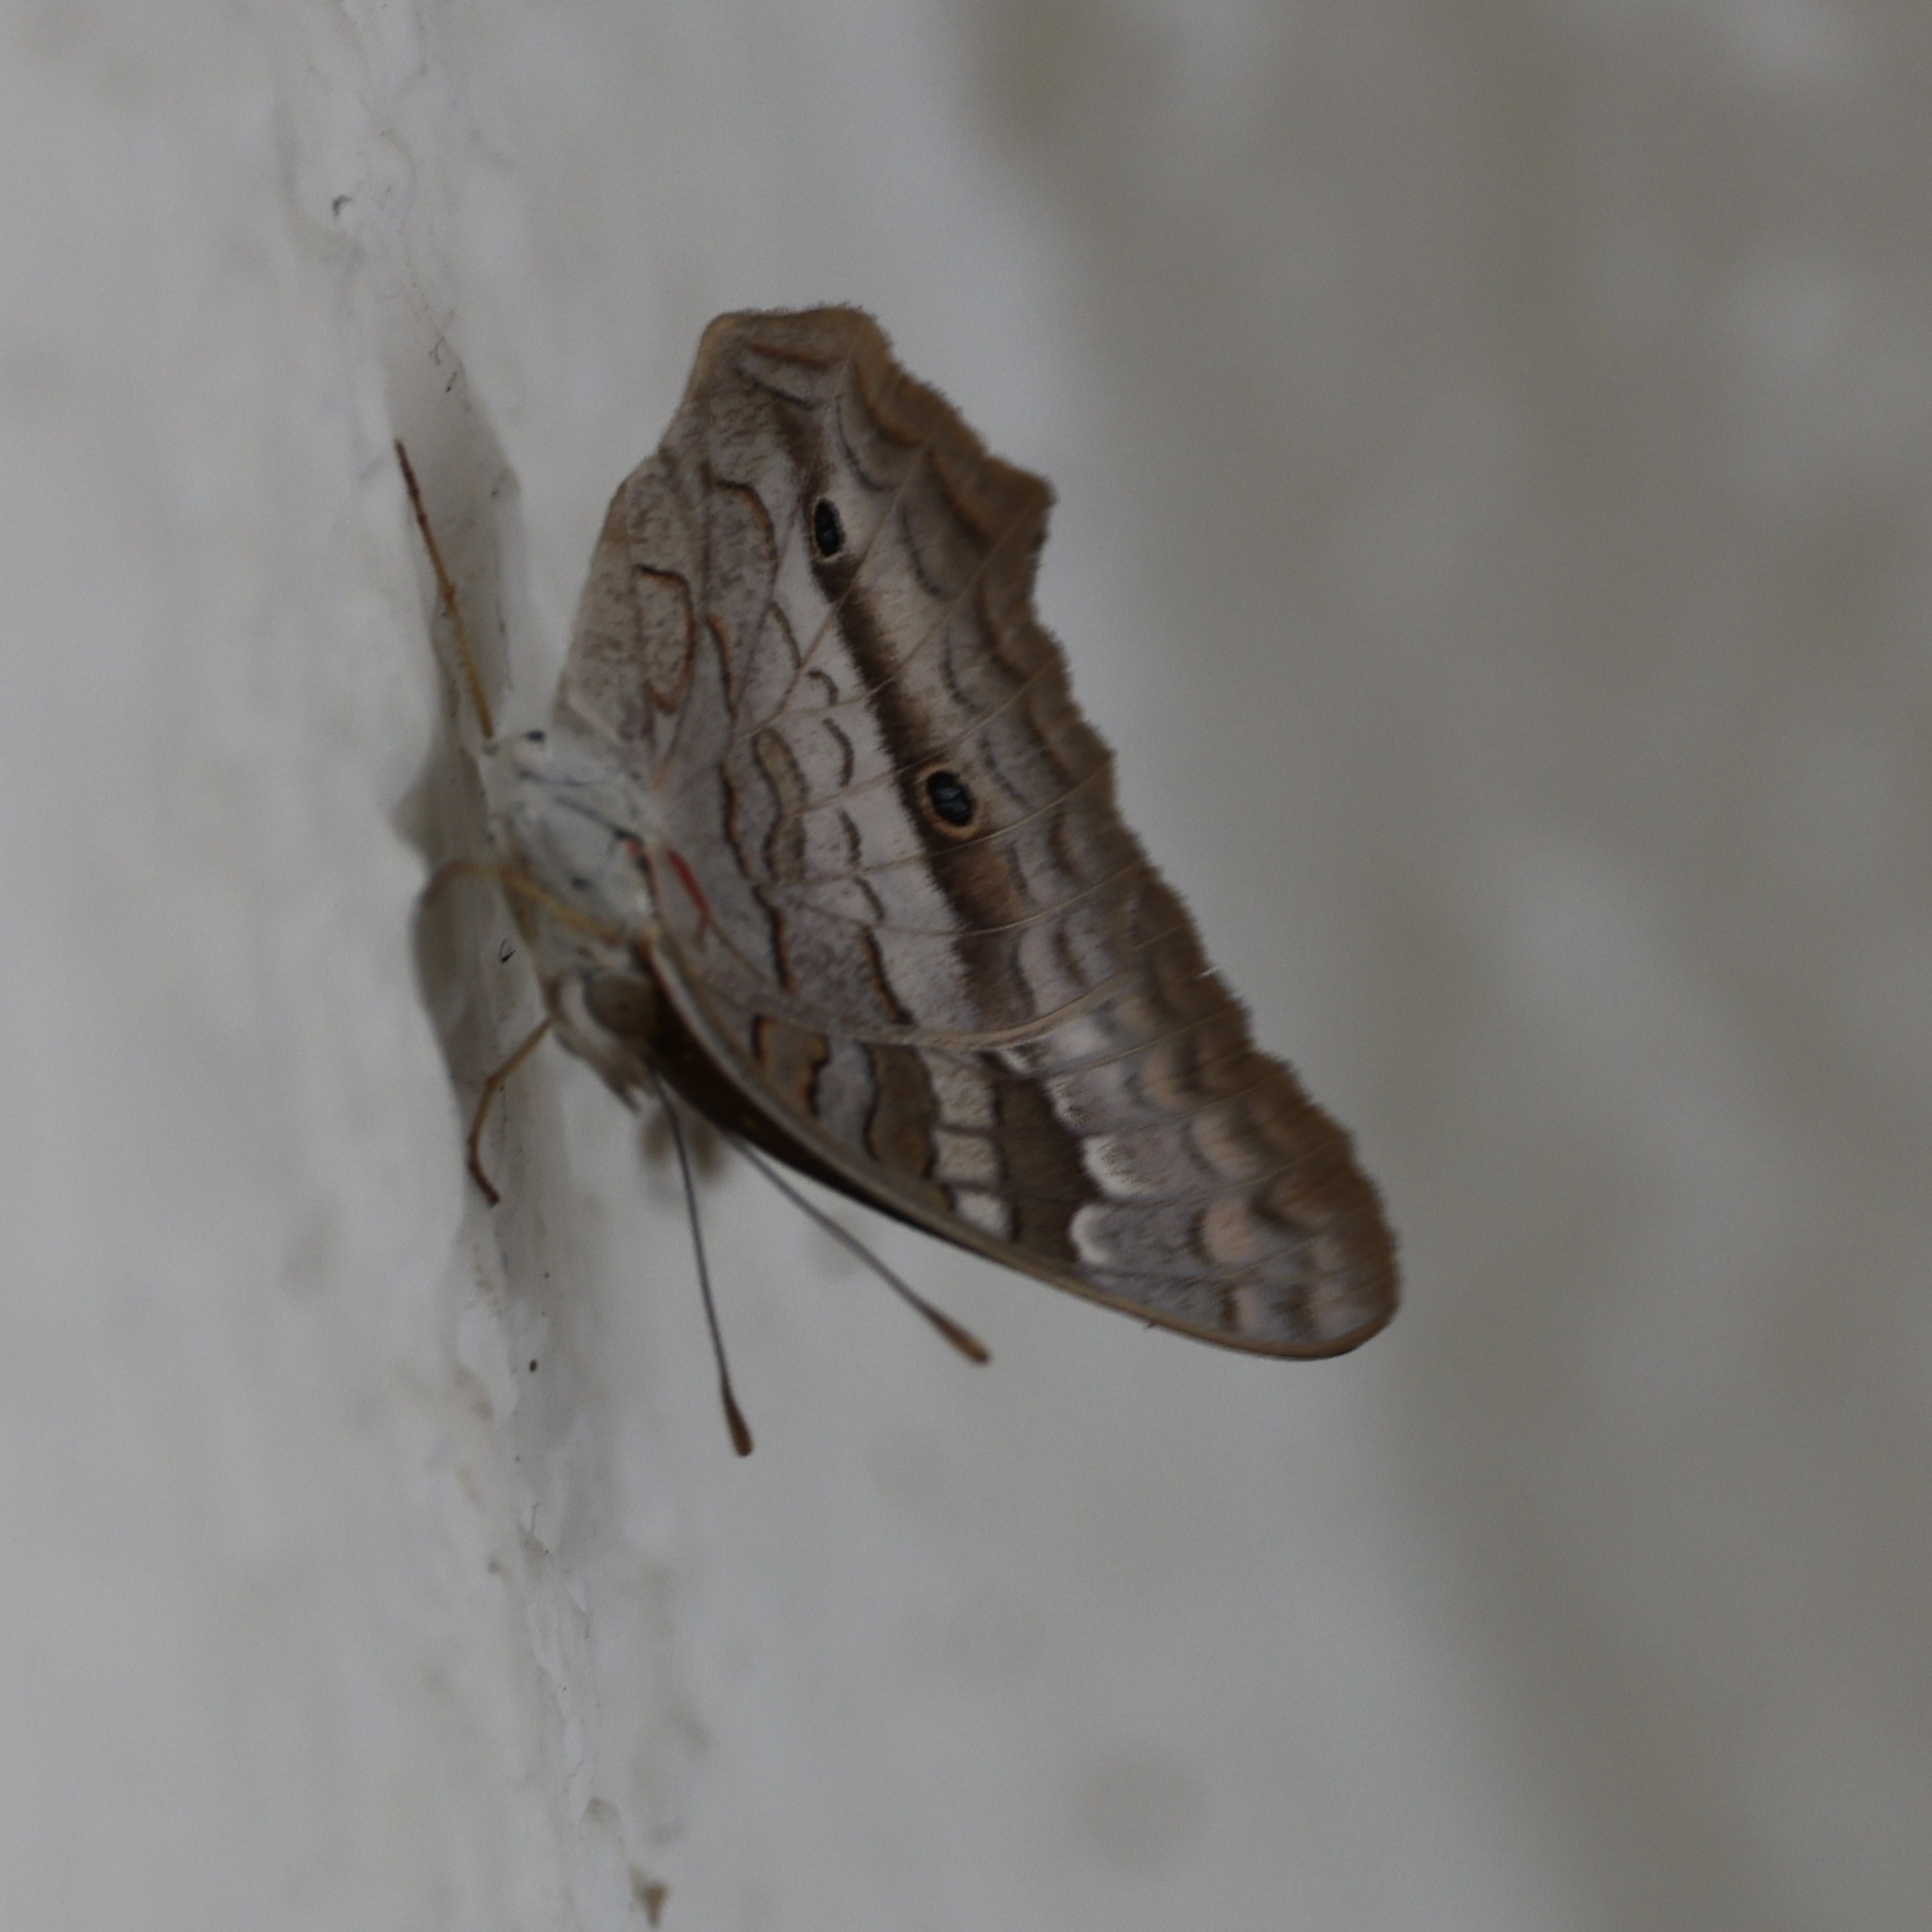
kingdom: Animalia
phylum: Arthropoda
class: Insecta
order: Lepidoptera
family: Nymphalidae
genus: Anartia
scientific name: Anartia jatrophae
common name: White peacock
